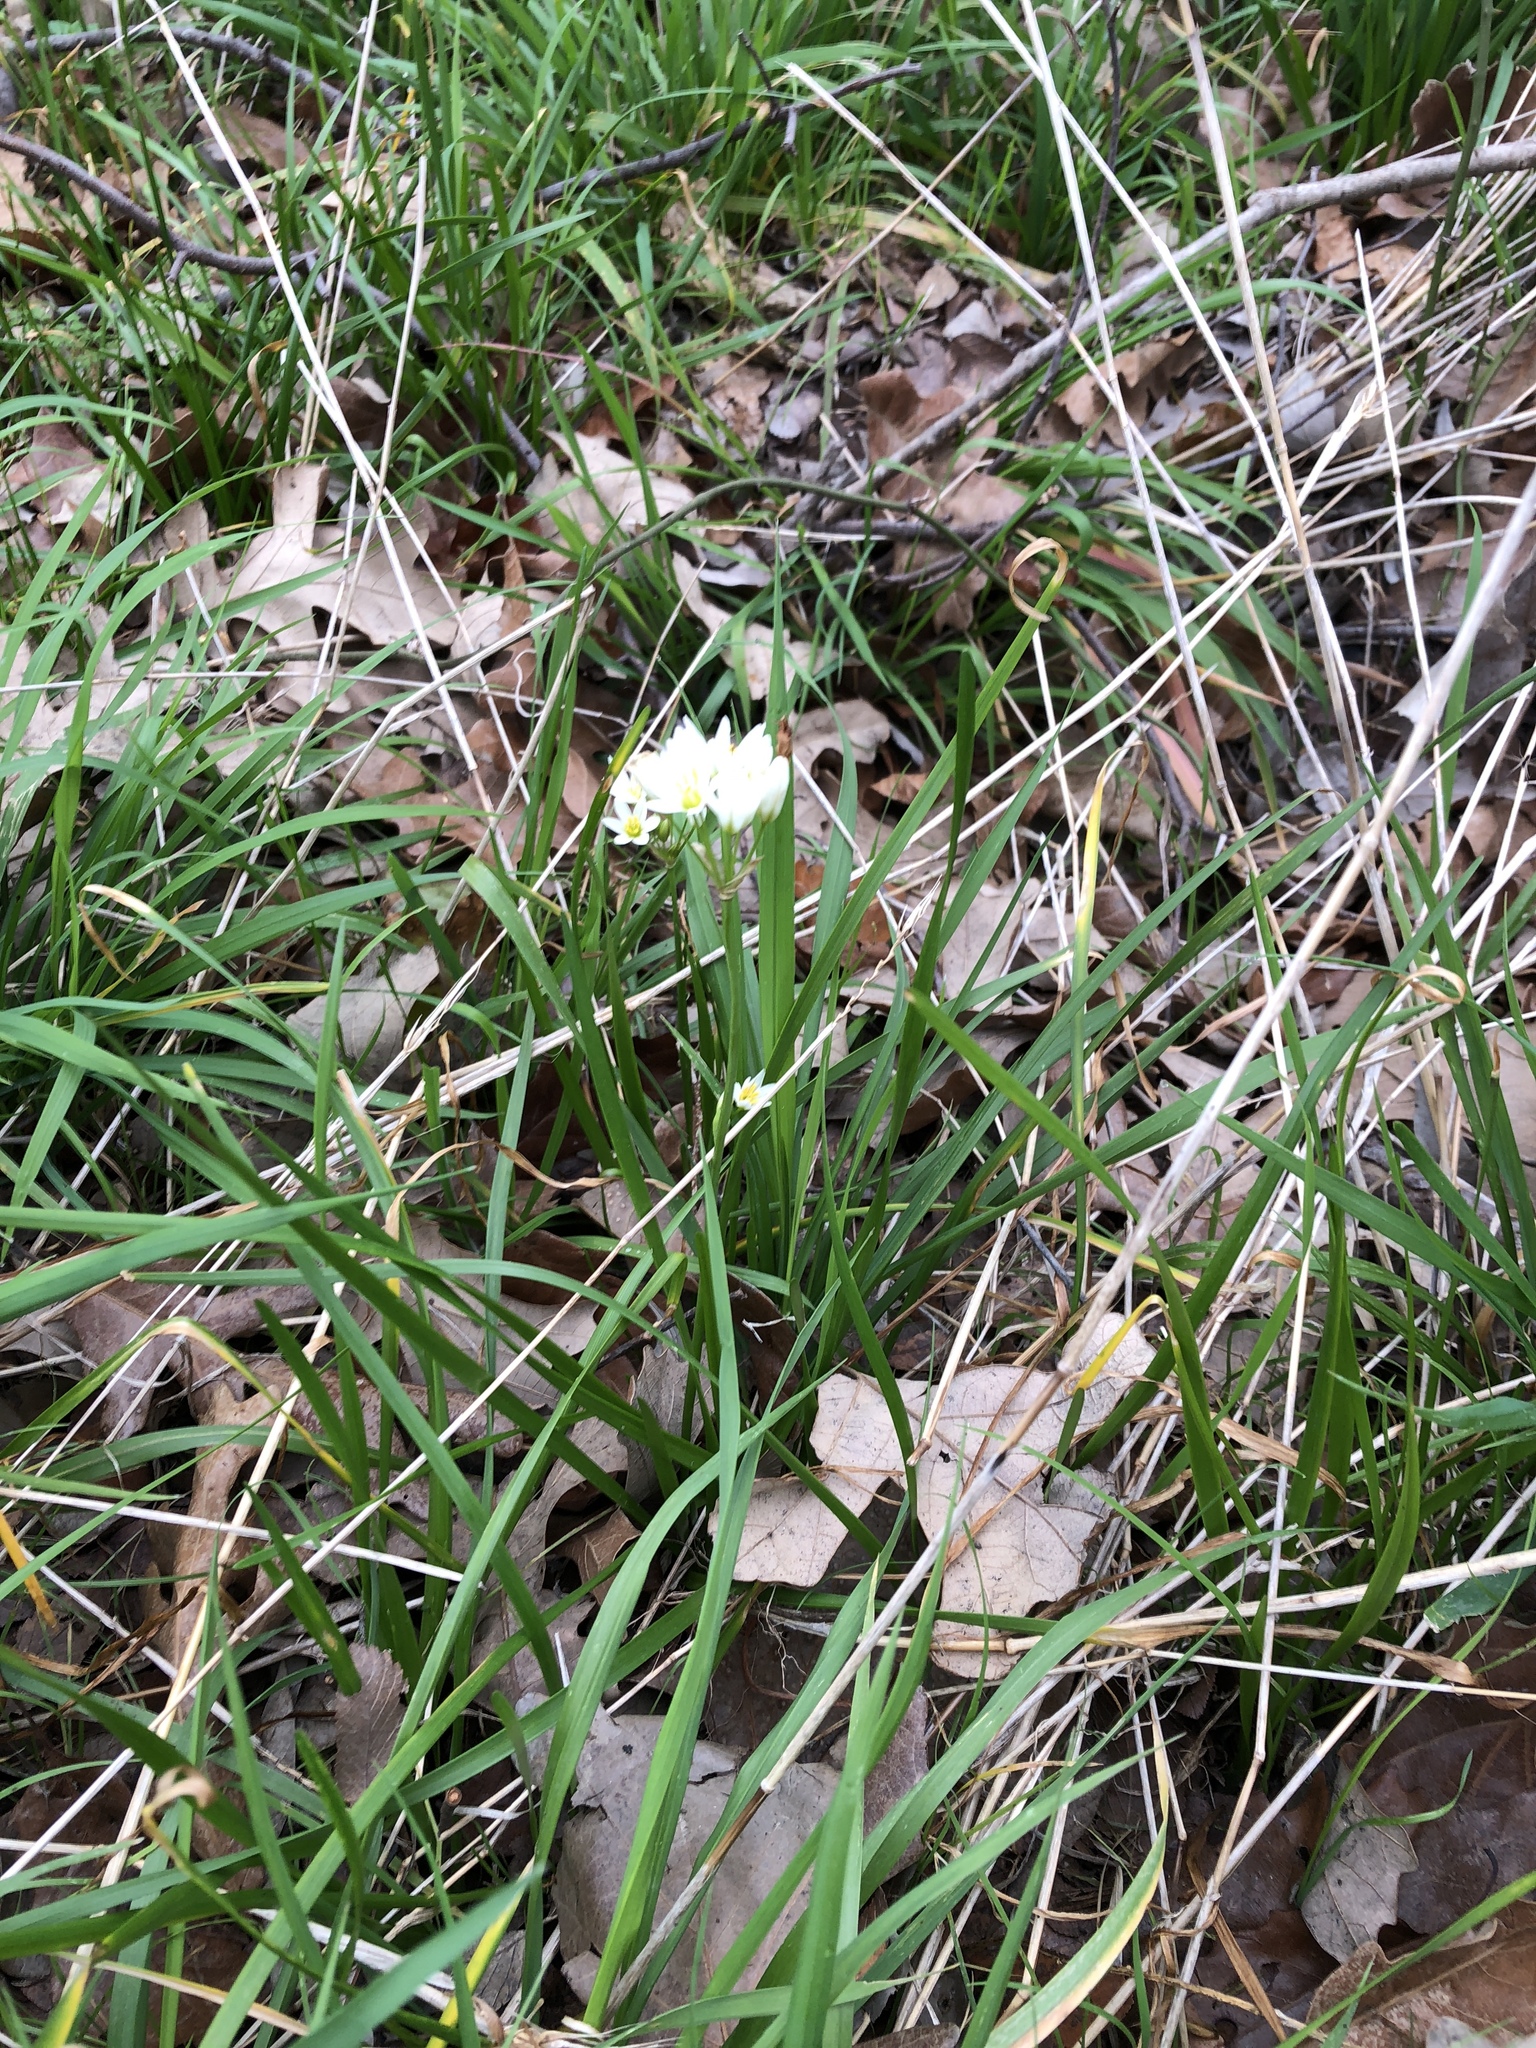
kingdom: Plantae
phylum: Tracheophyta
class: Liliopsida
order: Asparagales
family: Amaryllidaceae
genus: Nothoscordum
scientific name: Nothoscordum bivalve
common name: Crow-poison
